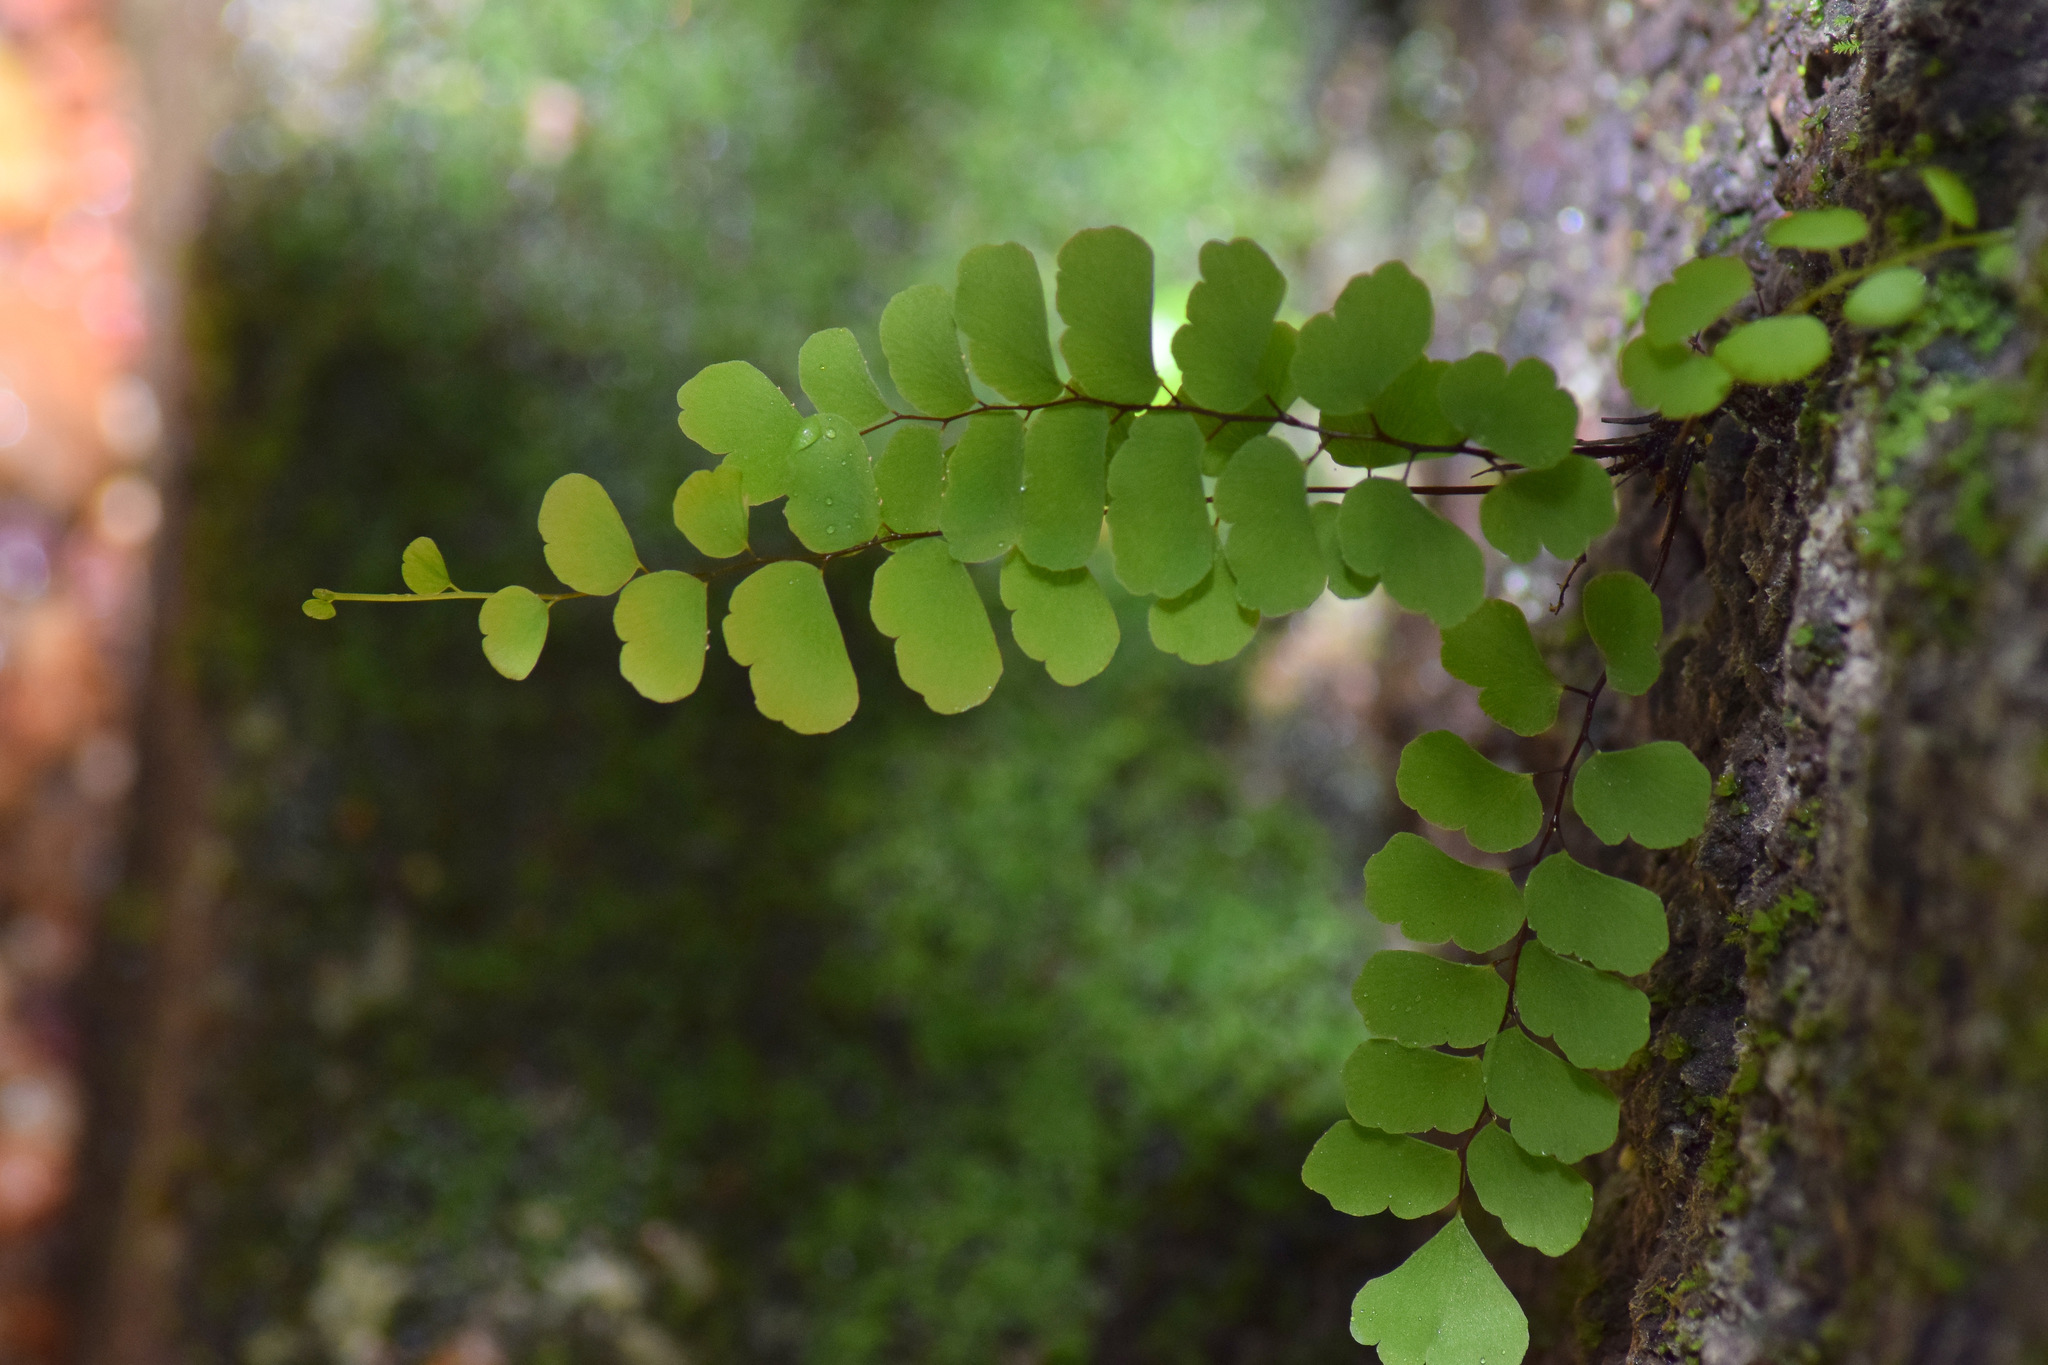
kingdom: Plantae
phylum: Tracheophyta
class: Polypodiopsida
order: Polypodiales
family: Pteridaceae
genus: Adiantum
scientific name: Adiantum philippense
